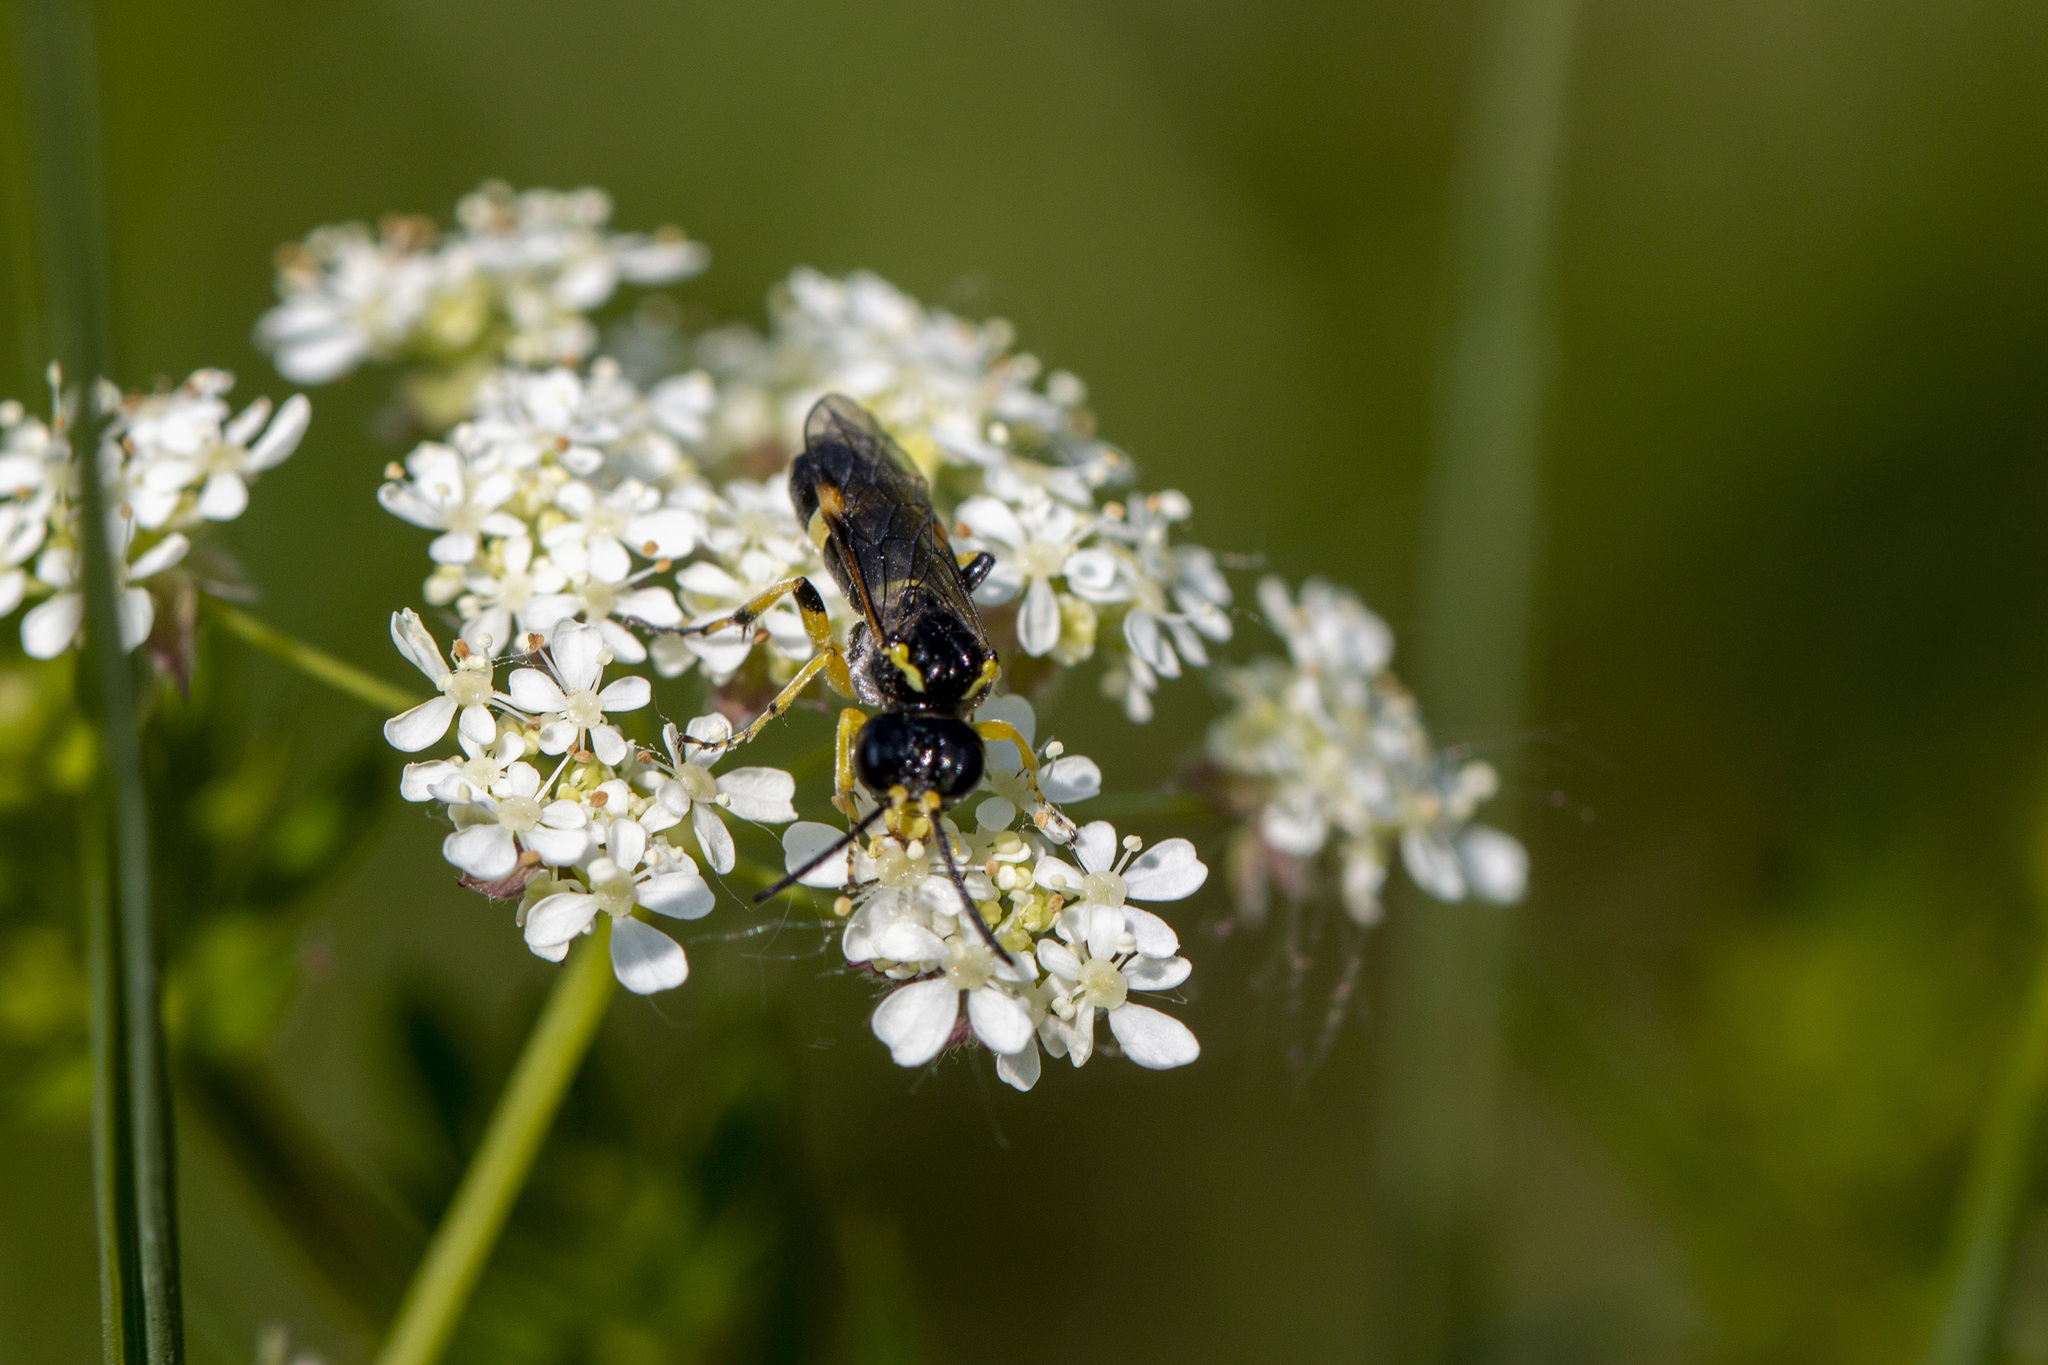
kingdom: Animalia
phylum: Arthropoda
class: Insecta
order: Hymenoptera
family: Tenthredinidae
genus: Tenthredo
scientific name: Tenthredo zonula
